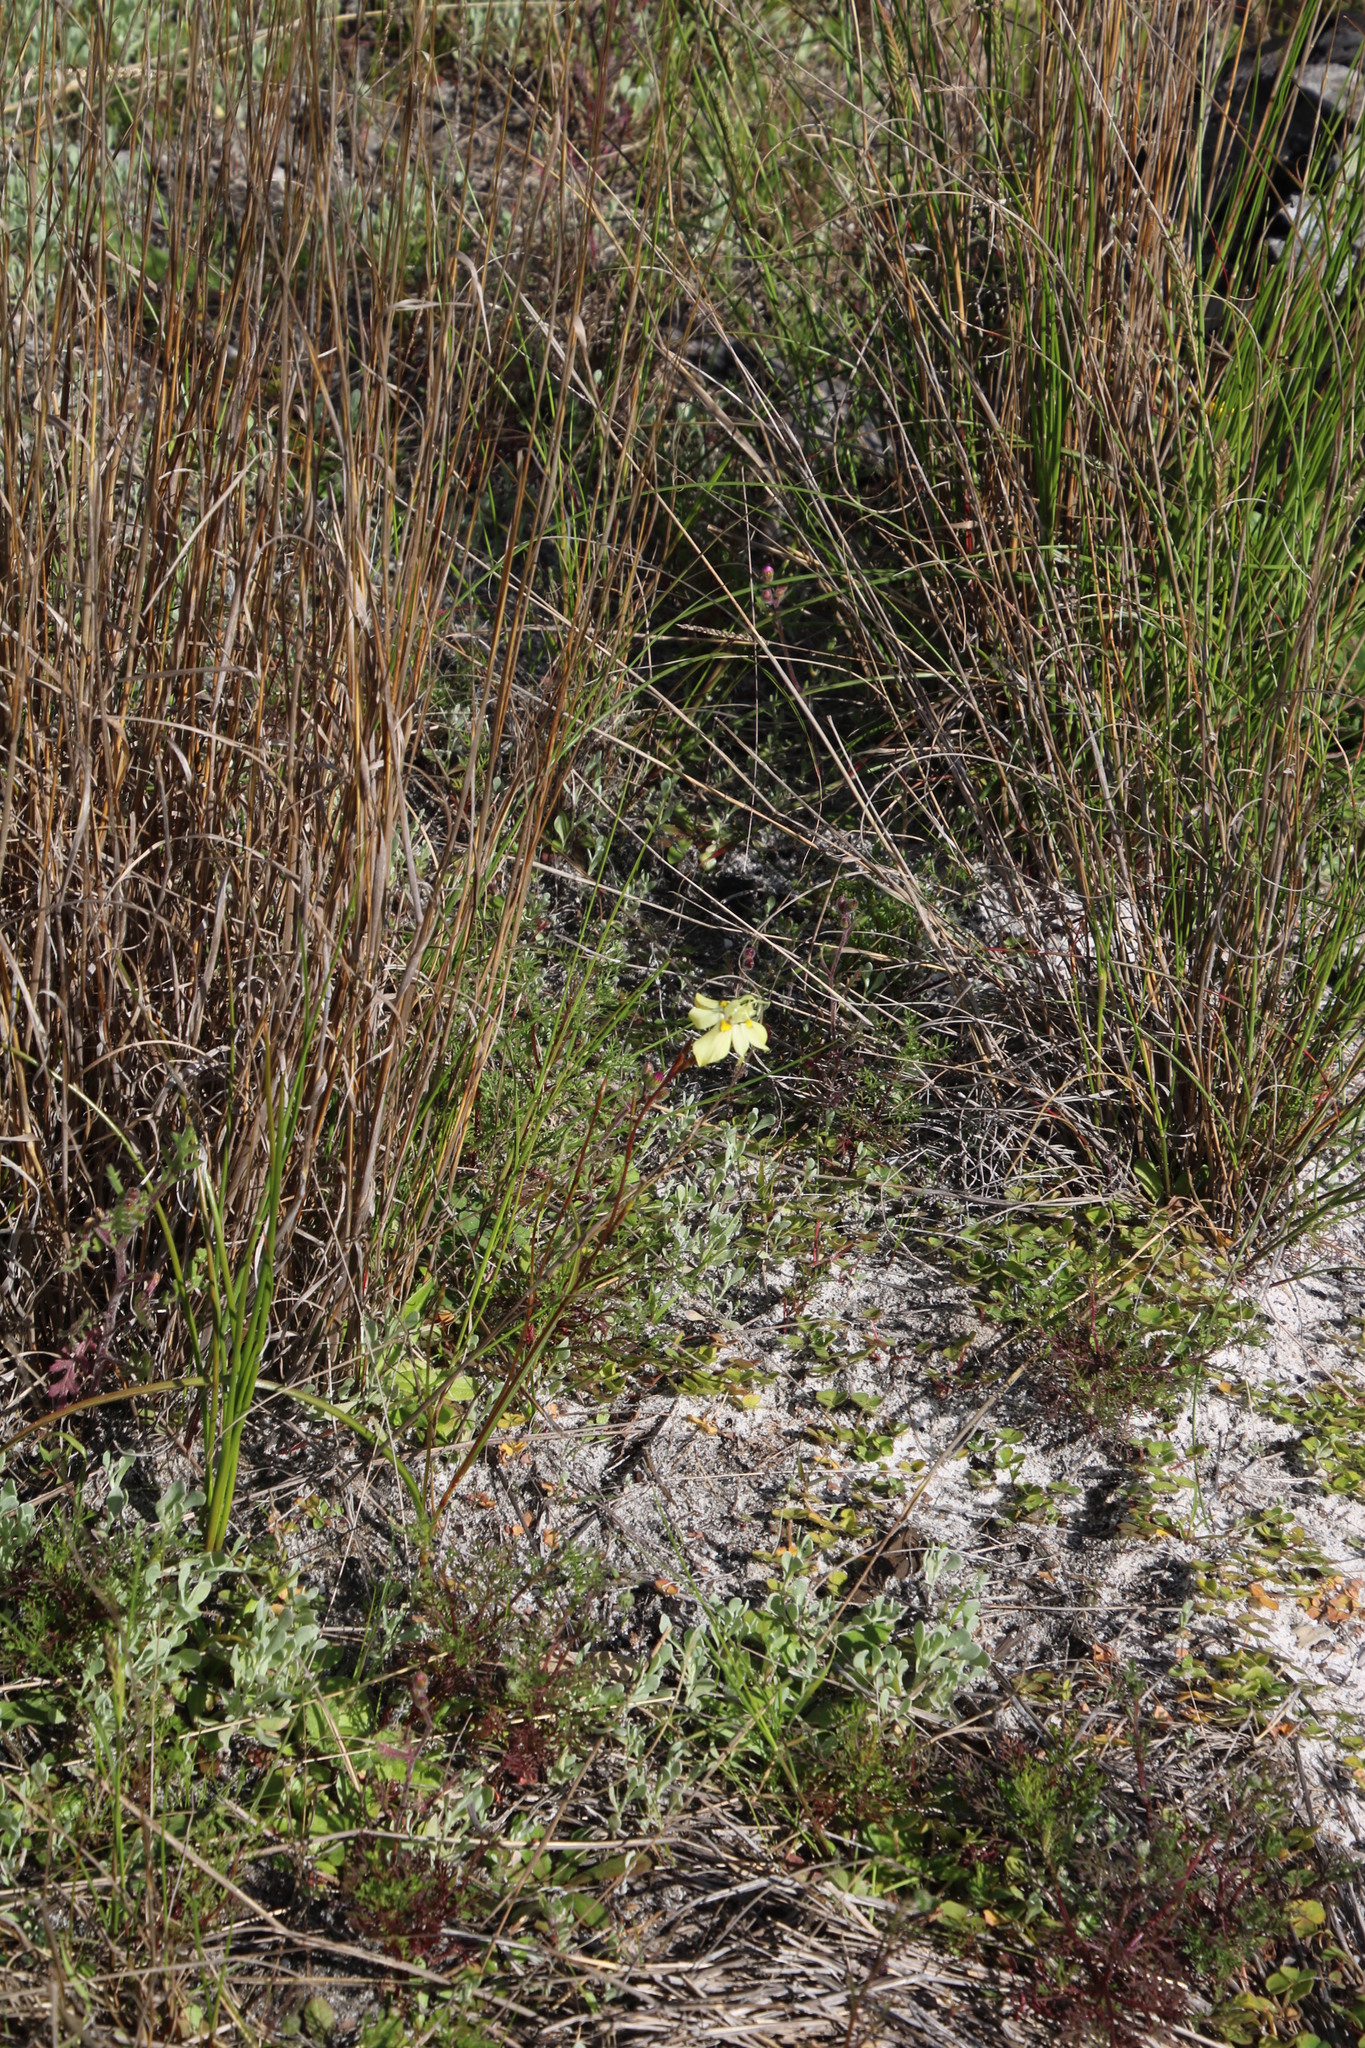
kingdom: Plantae
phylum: Tracheophyta
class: Liliopsida
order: Asparagales
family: Iridaceae
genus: Moraea
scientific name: Moraea gawleri
